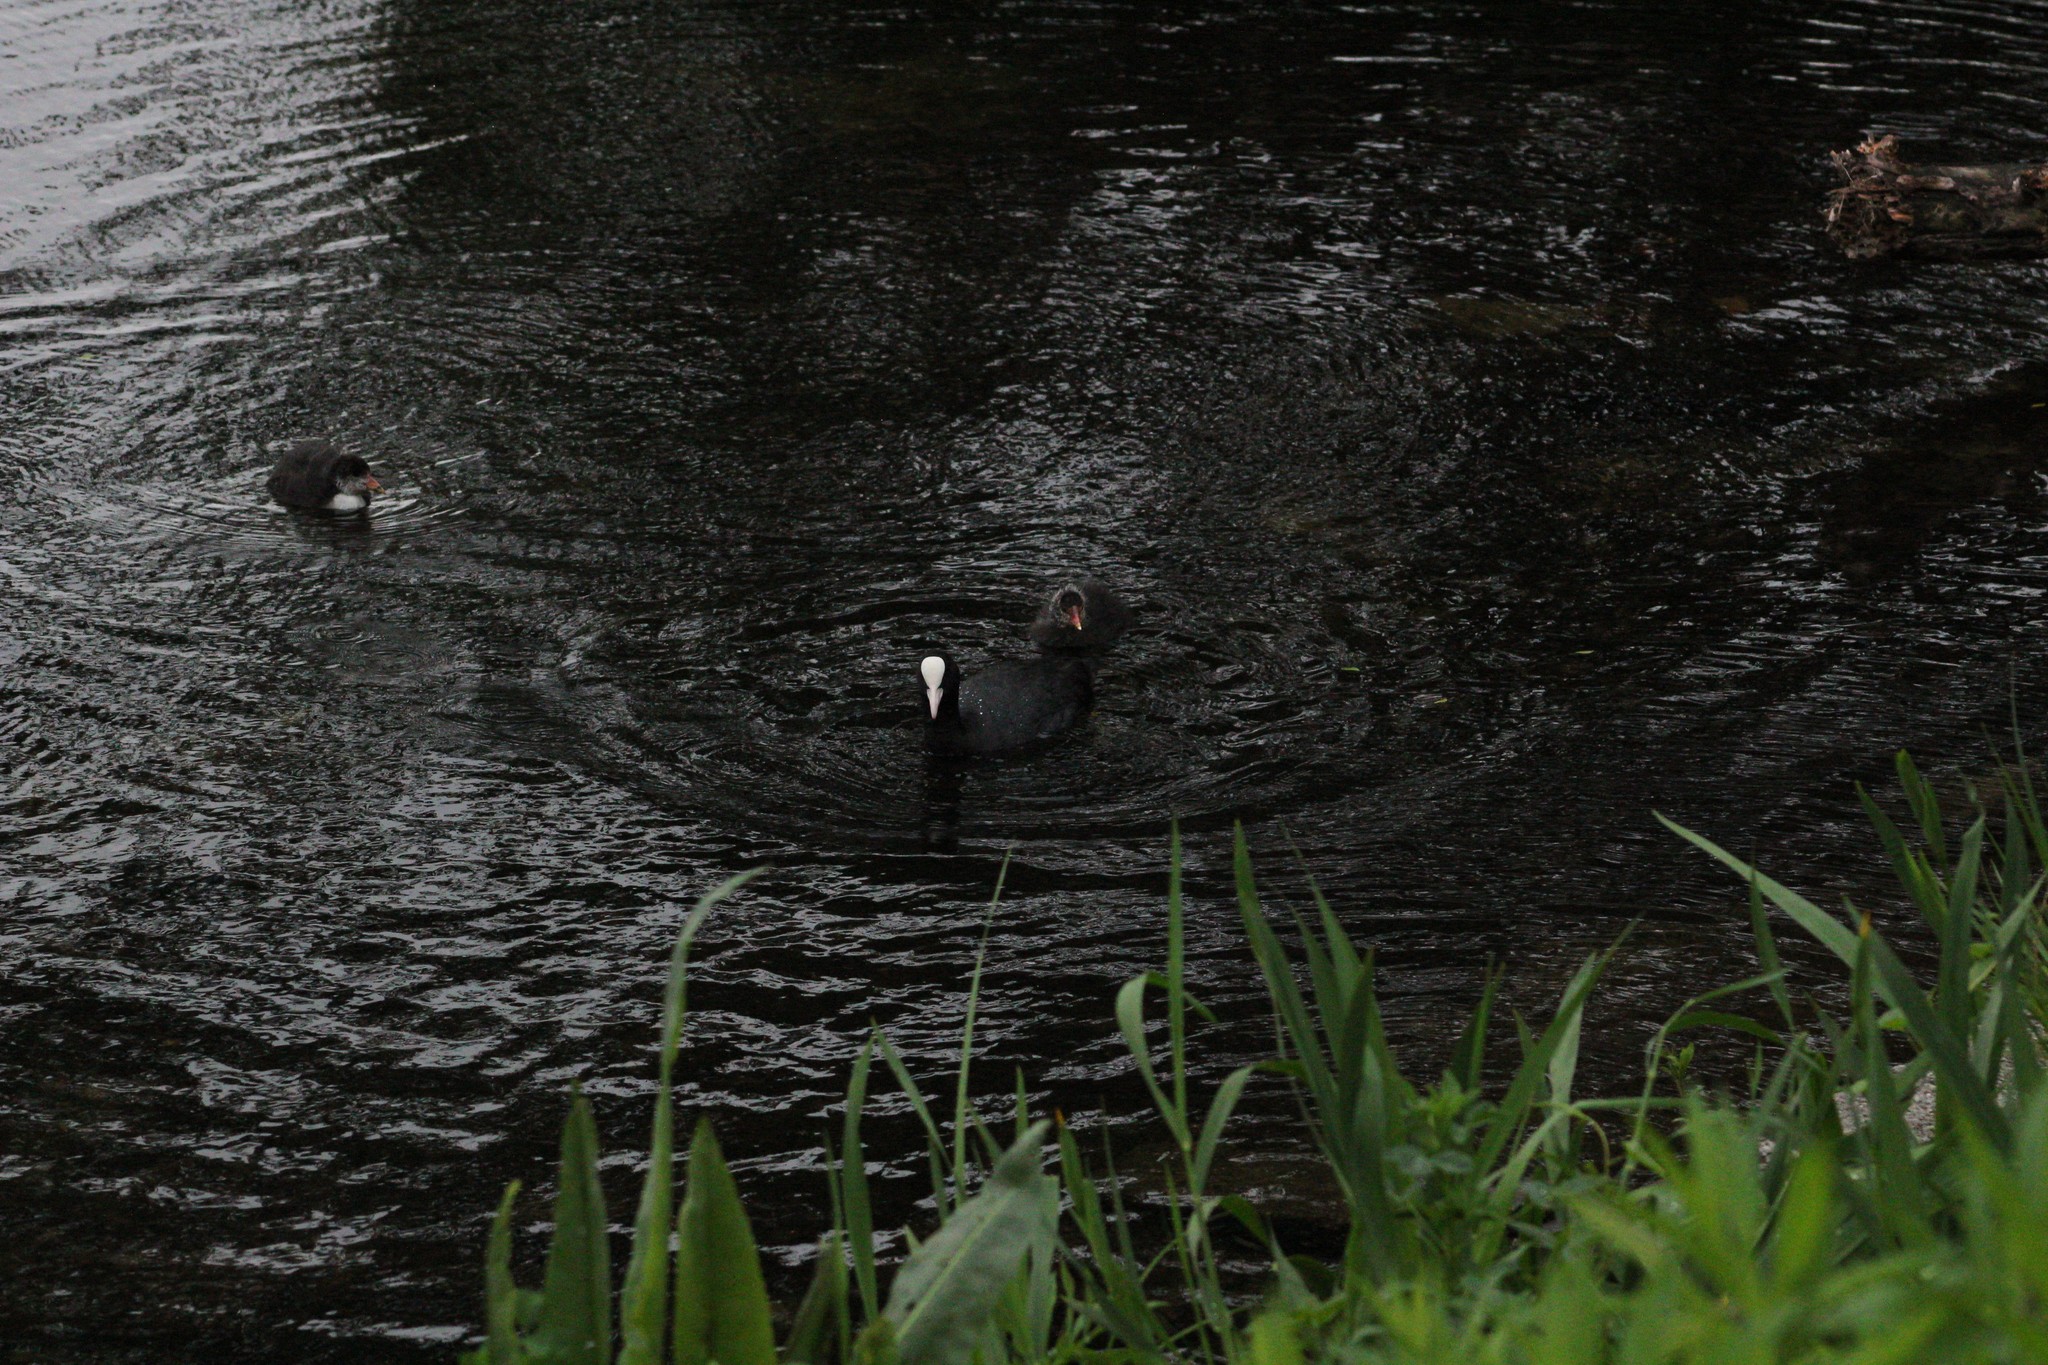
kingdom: Animalia
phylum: Chordata
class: Aves
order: Gruiformes
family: Rallidae
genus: Fulica
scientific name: Fulica atra
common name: Eurasian coot
